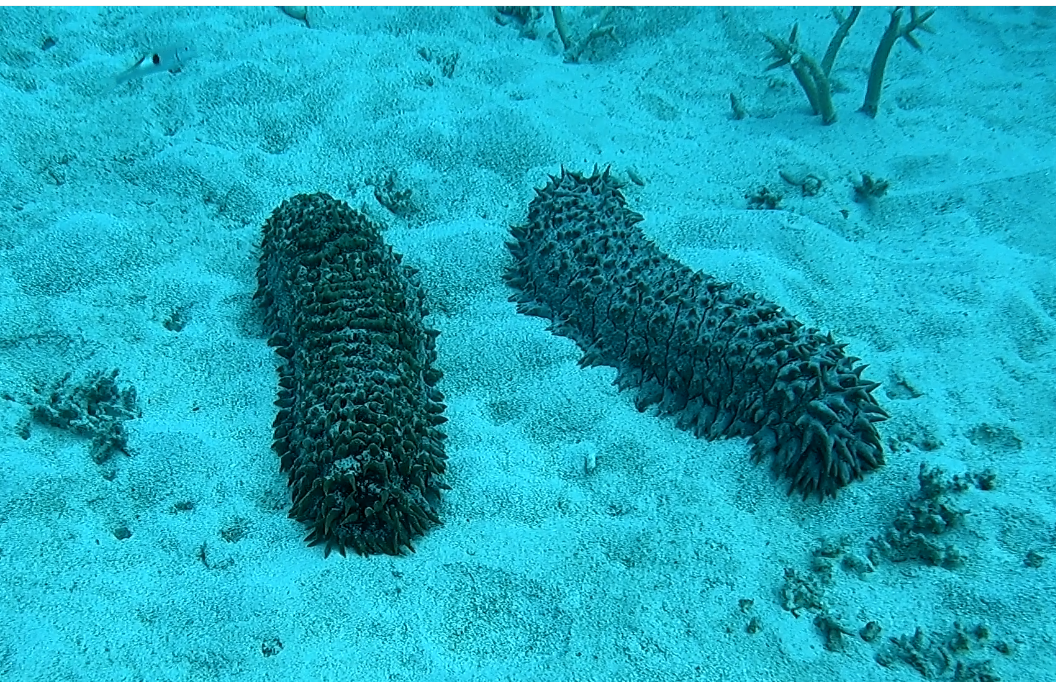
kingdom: Animalia
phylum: Echinodermata
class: Holothuroidea
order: Synallactida
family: Stichopodidae
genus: Thelenota
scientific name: Thelenota ananas
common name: Prickly redfish
